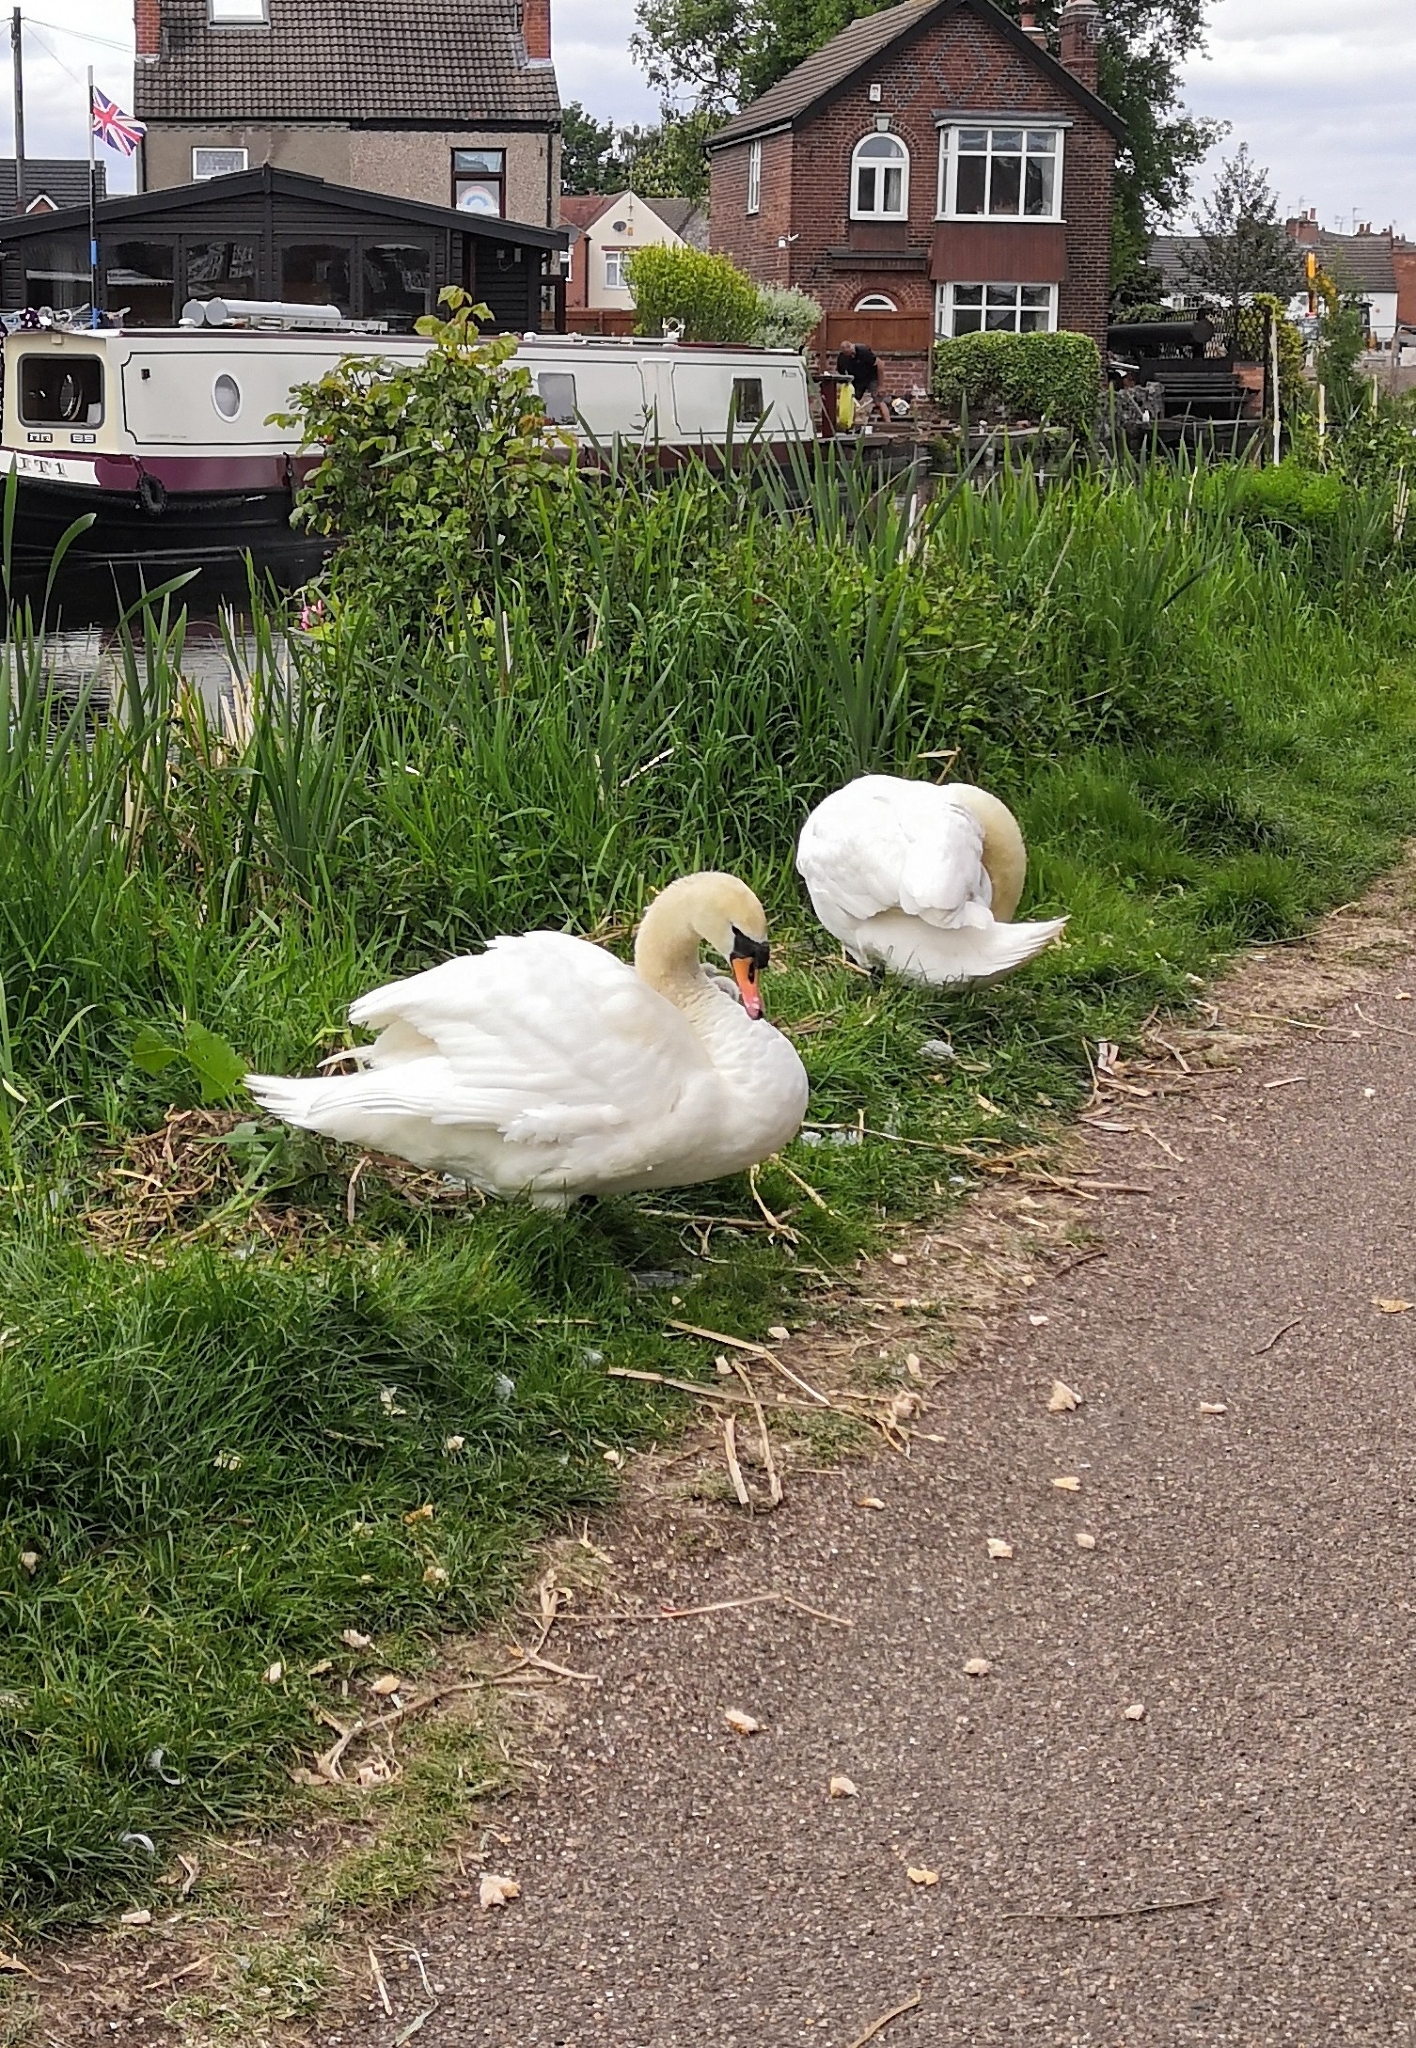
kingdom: Animalia
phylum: Chordata
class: Aves
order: Anseriformes
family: Anatidae
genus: Cygnus
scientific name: Cygnus olor
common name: Mute swan
